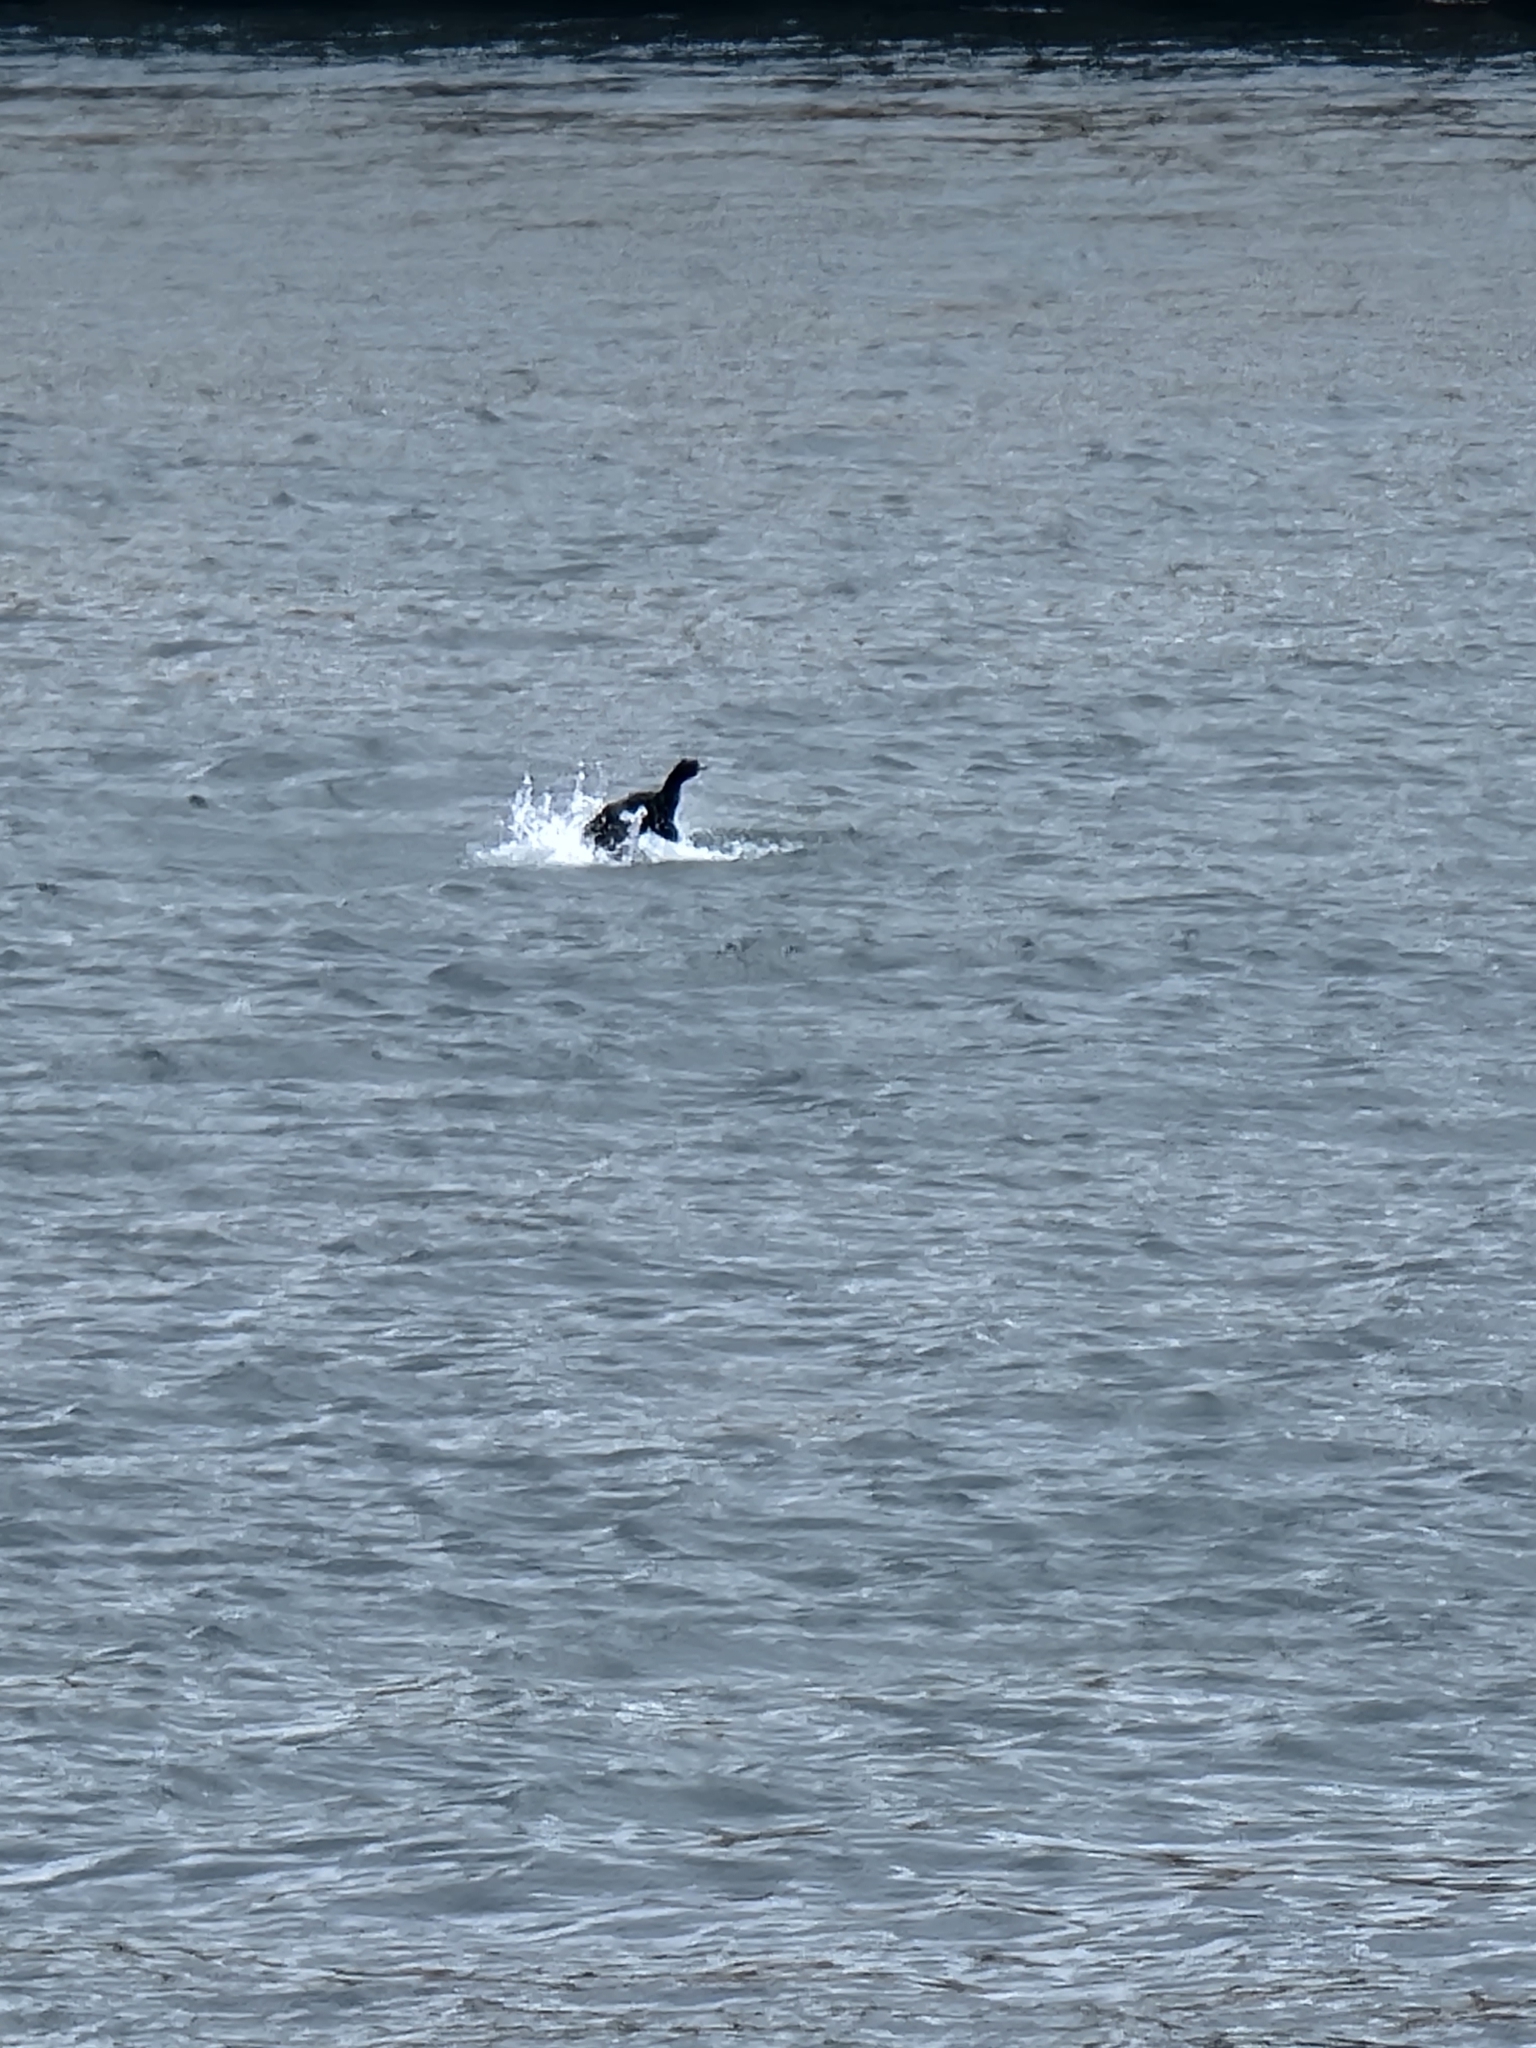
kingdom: Animalia
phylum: Chordata
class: Aves
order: Suliformes
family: Phalacrocoracidae
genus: Phalacrocorax
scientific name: Phalacrocorax pelagicus
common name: Pelagic cormorant
